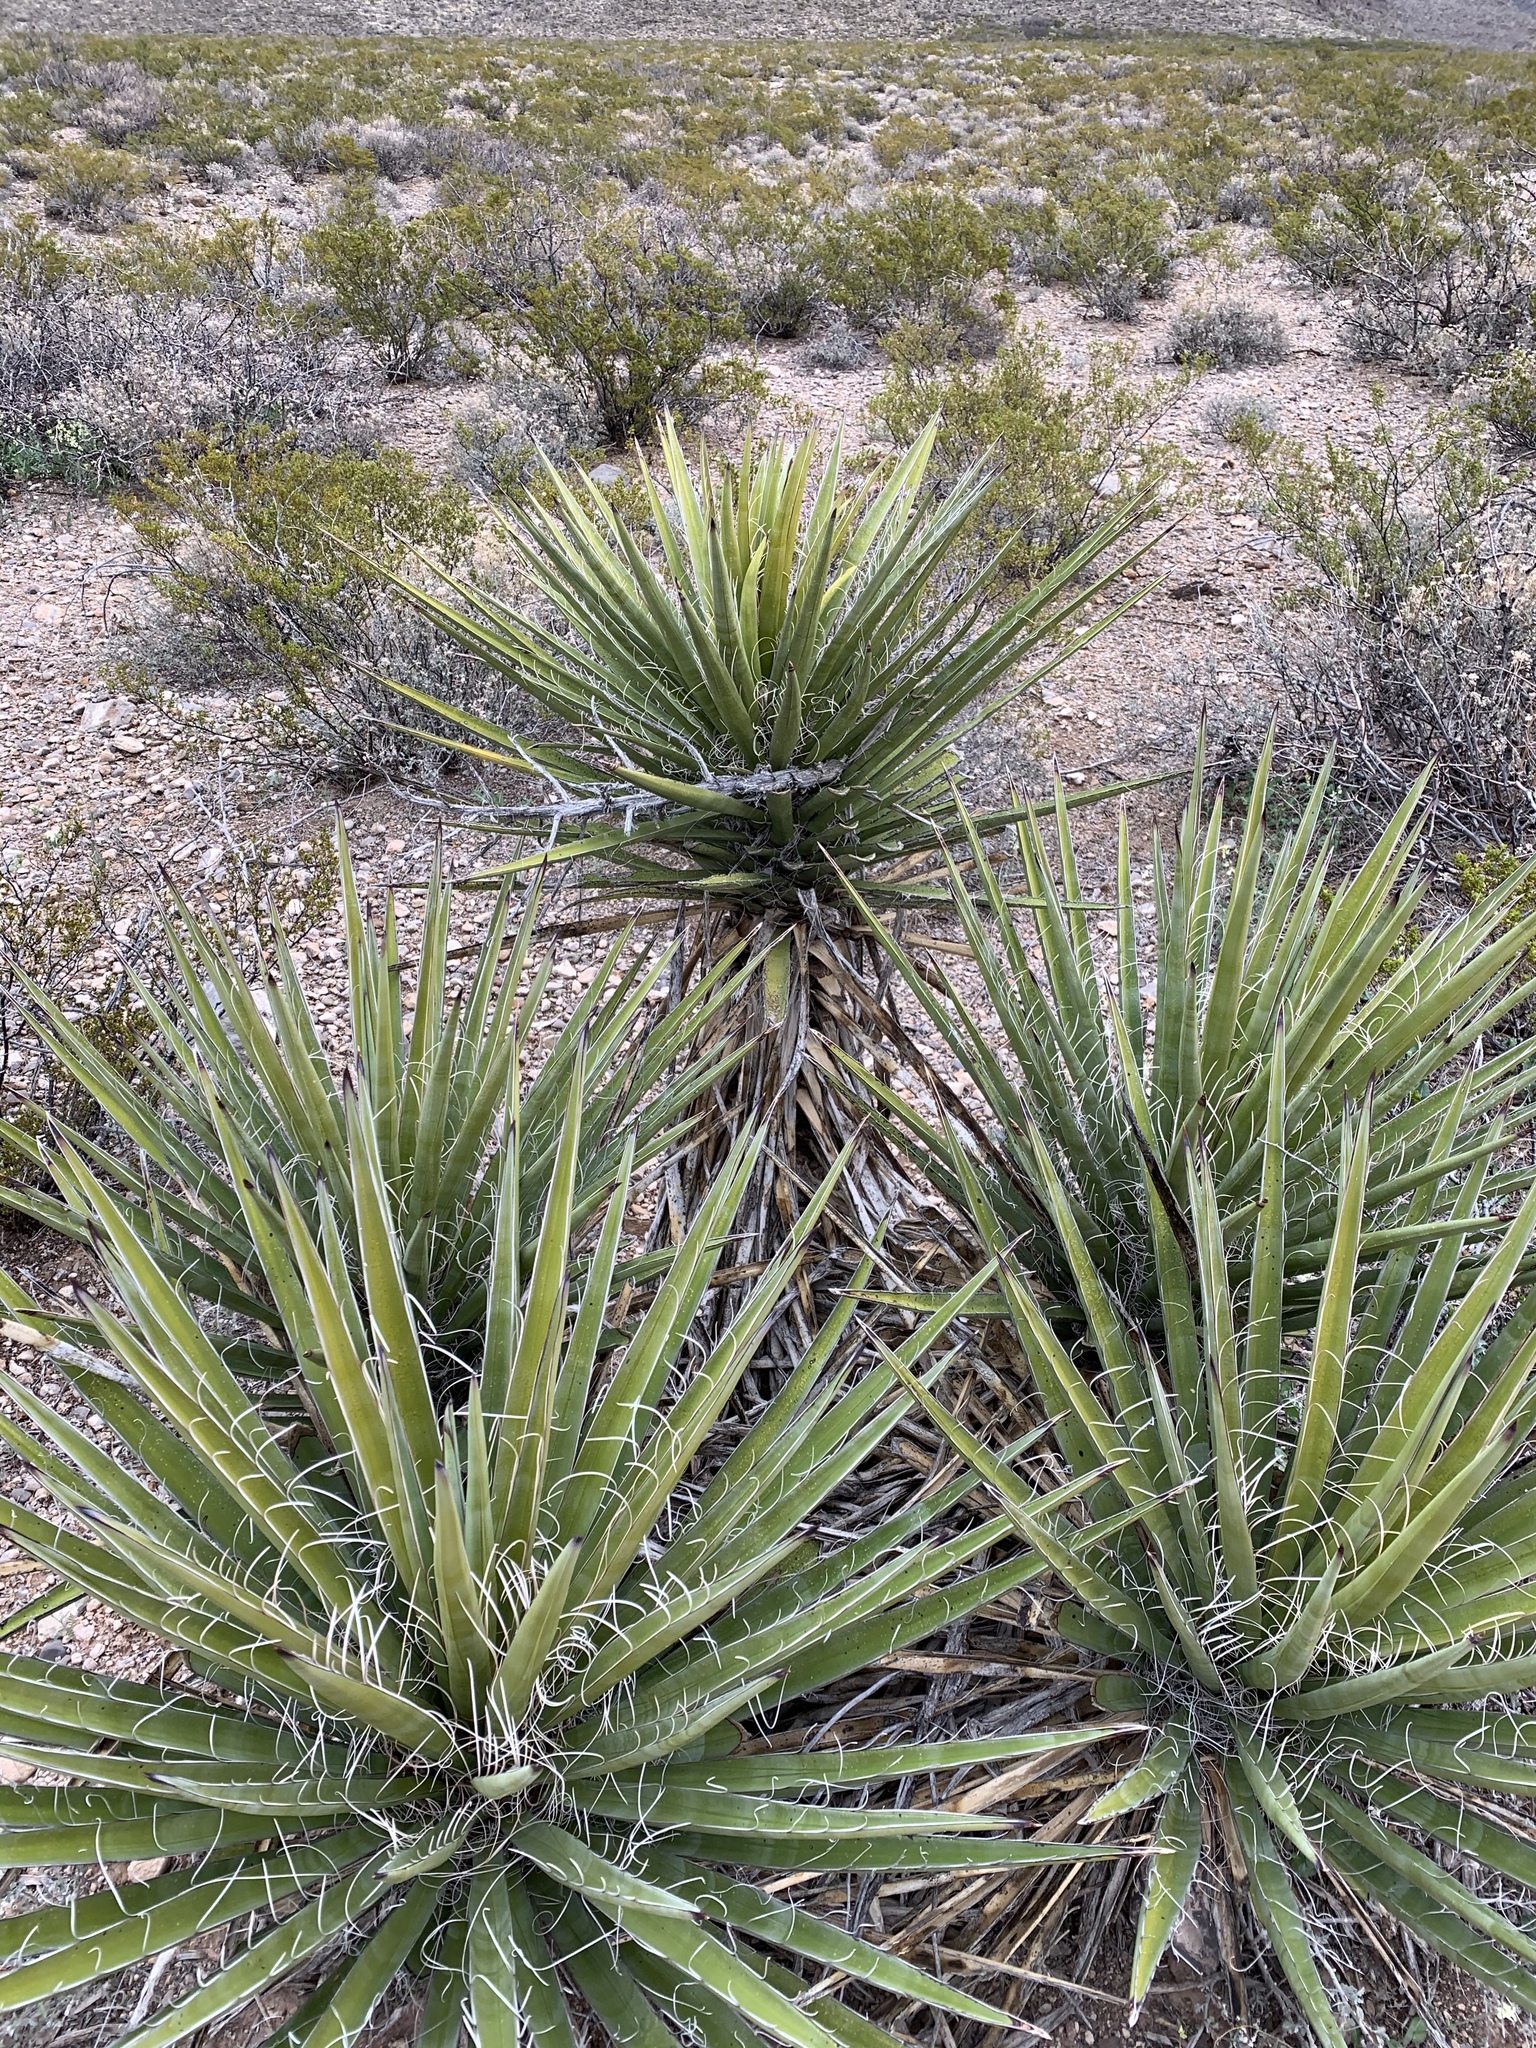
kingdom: Plantae
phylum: Tracheophyta
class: Liliopsida
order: Asparagales
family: Asparagaceae
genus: Yucca
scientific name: Yucca baccata
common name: Banana yucca
